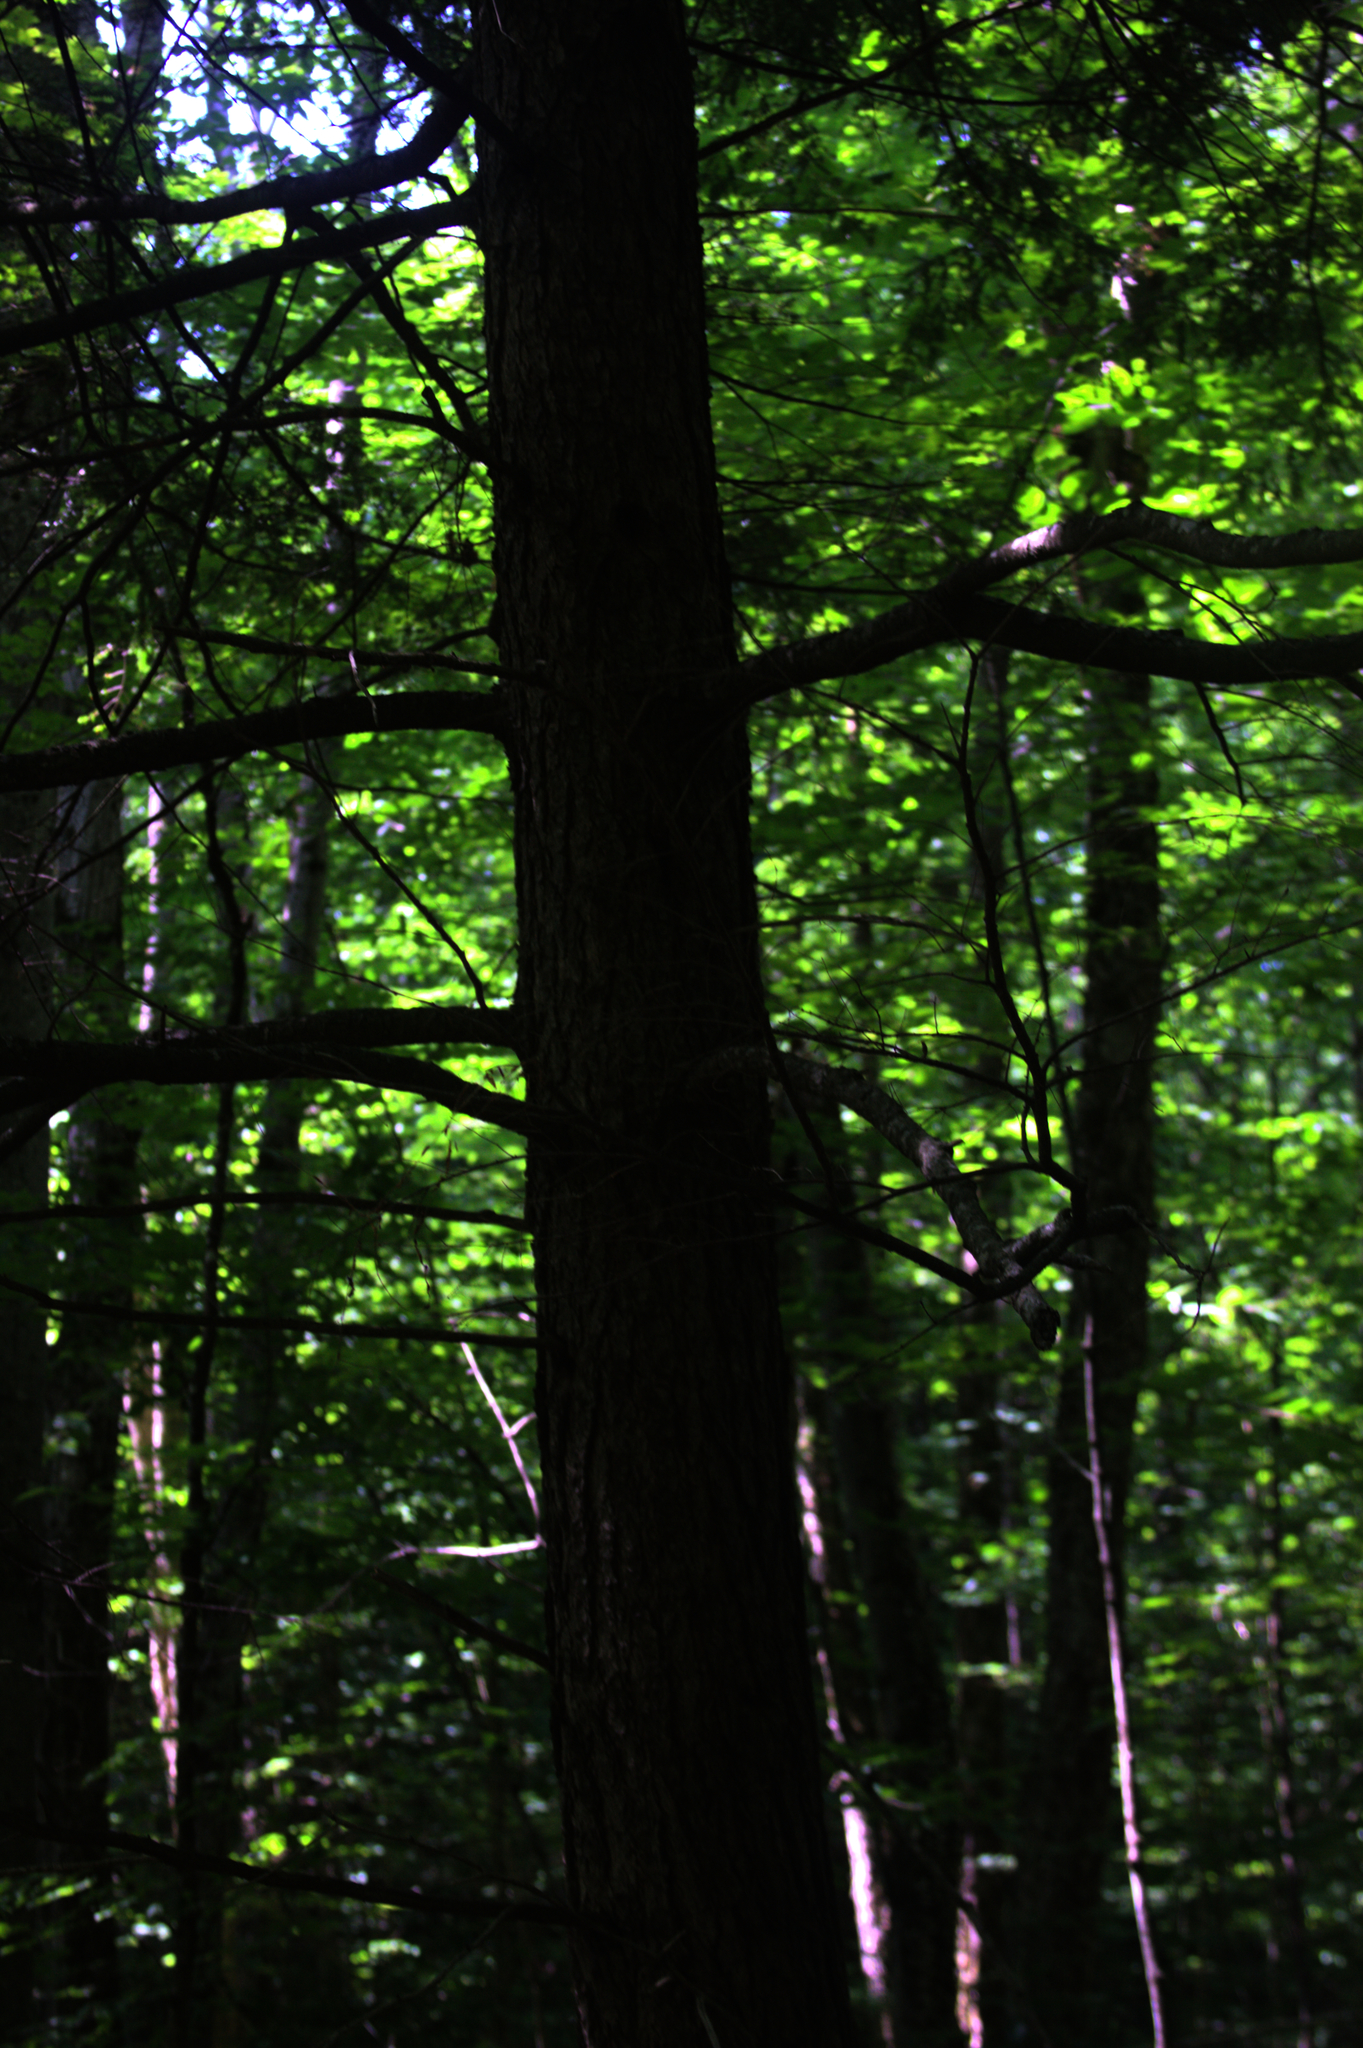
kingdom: Plantae
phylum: Tracheophyta
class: Pinopsida
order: Pinales
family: Pinaceae
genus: Tsuga
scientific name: Tsuga canadensis
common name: Eastern hemlock
